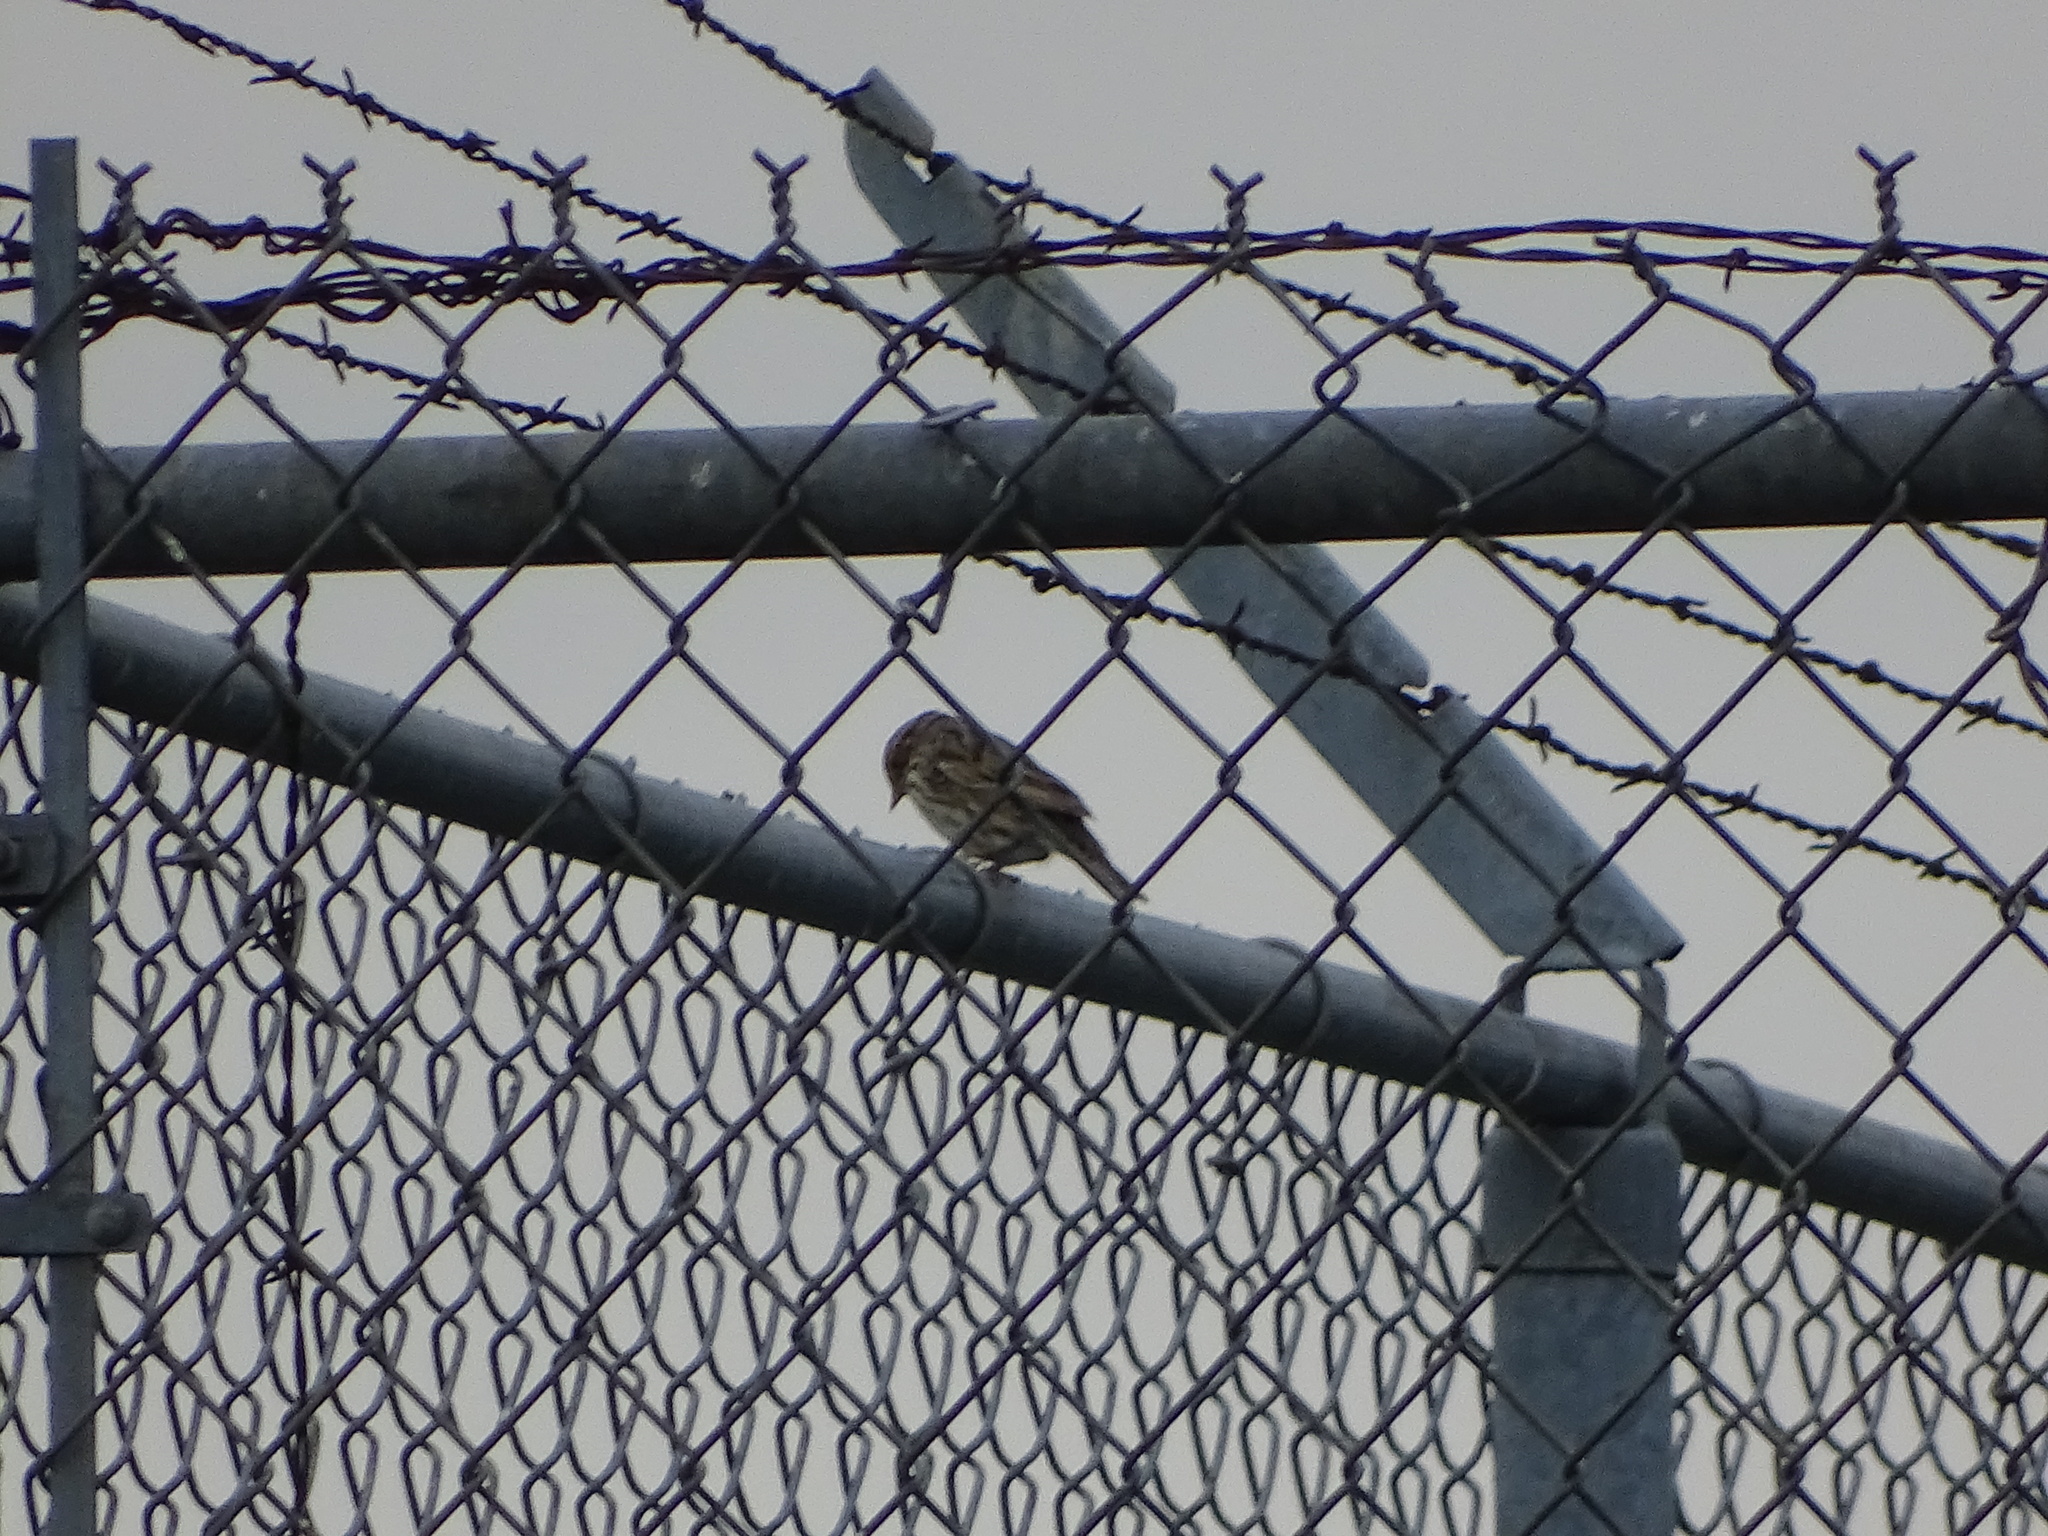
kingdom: Animalia
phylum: Chordata
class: Aves
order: Passeriformes
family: Passeridae
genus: Passer
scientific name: Passer domesticus
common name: House sparrow
